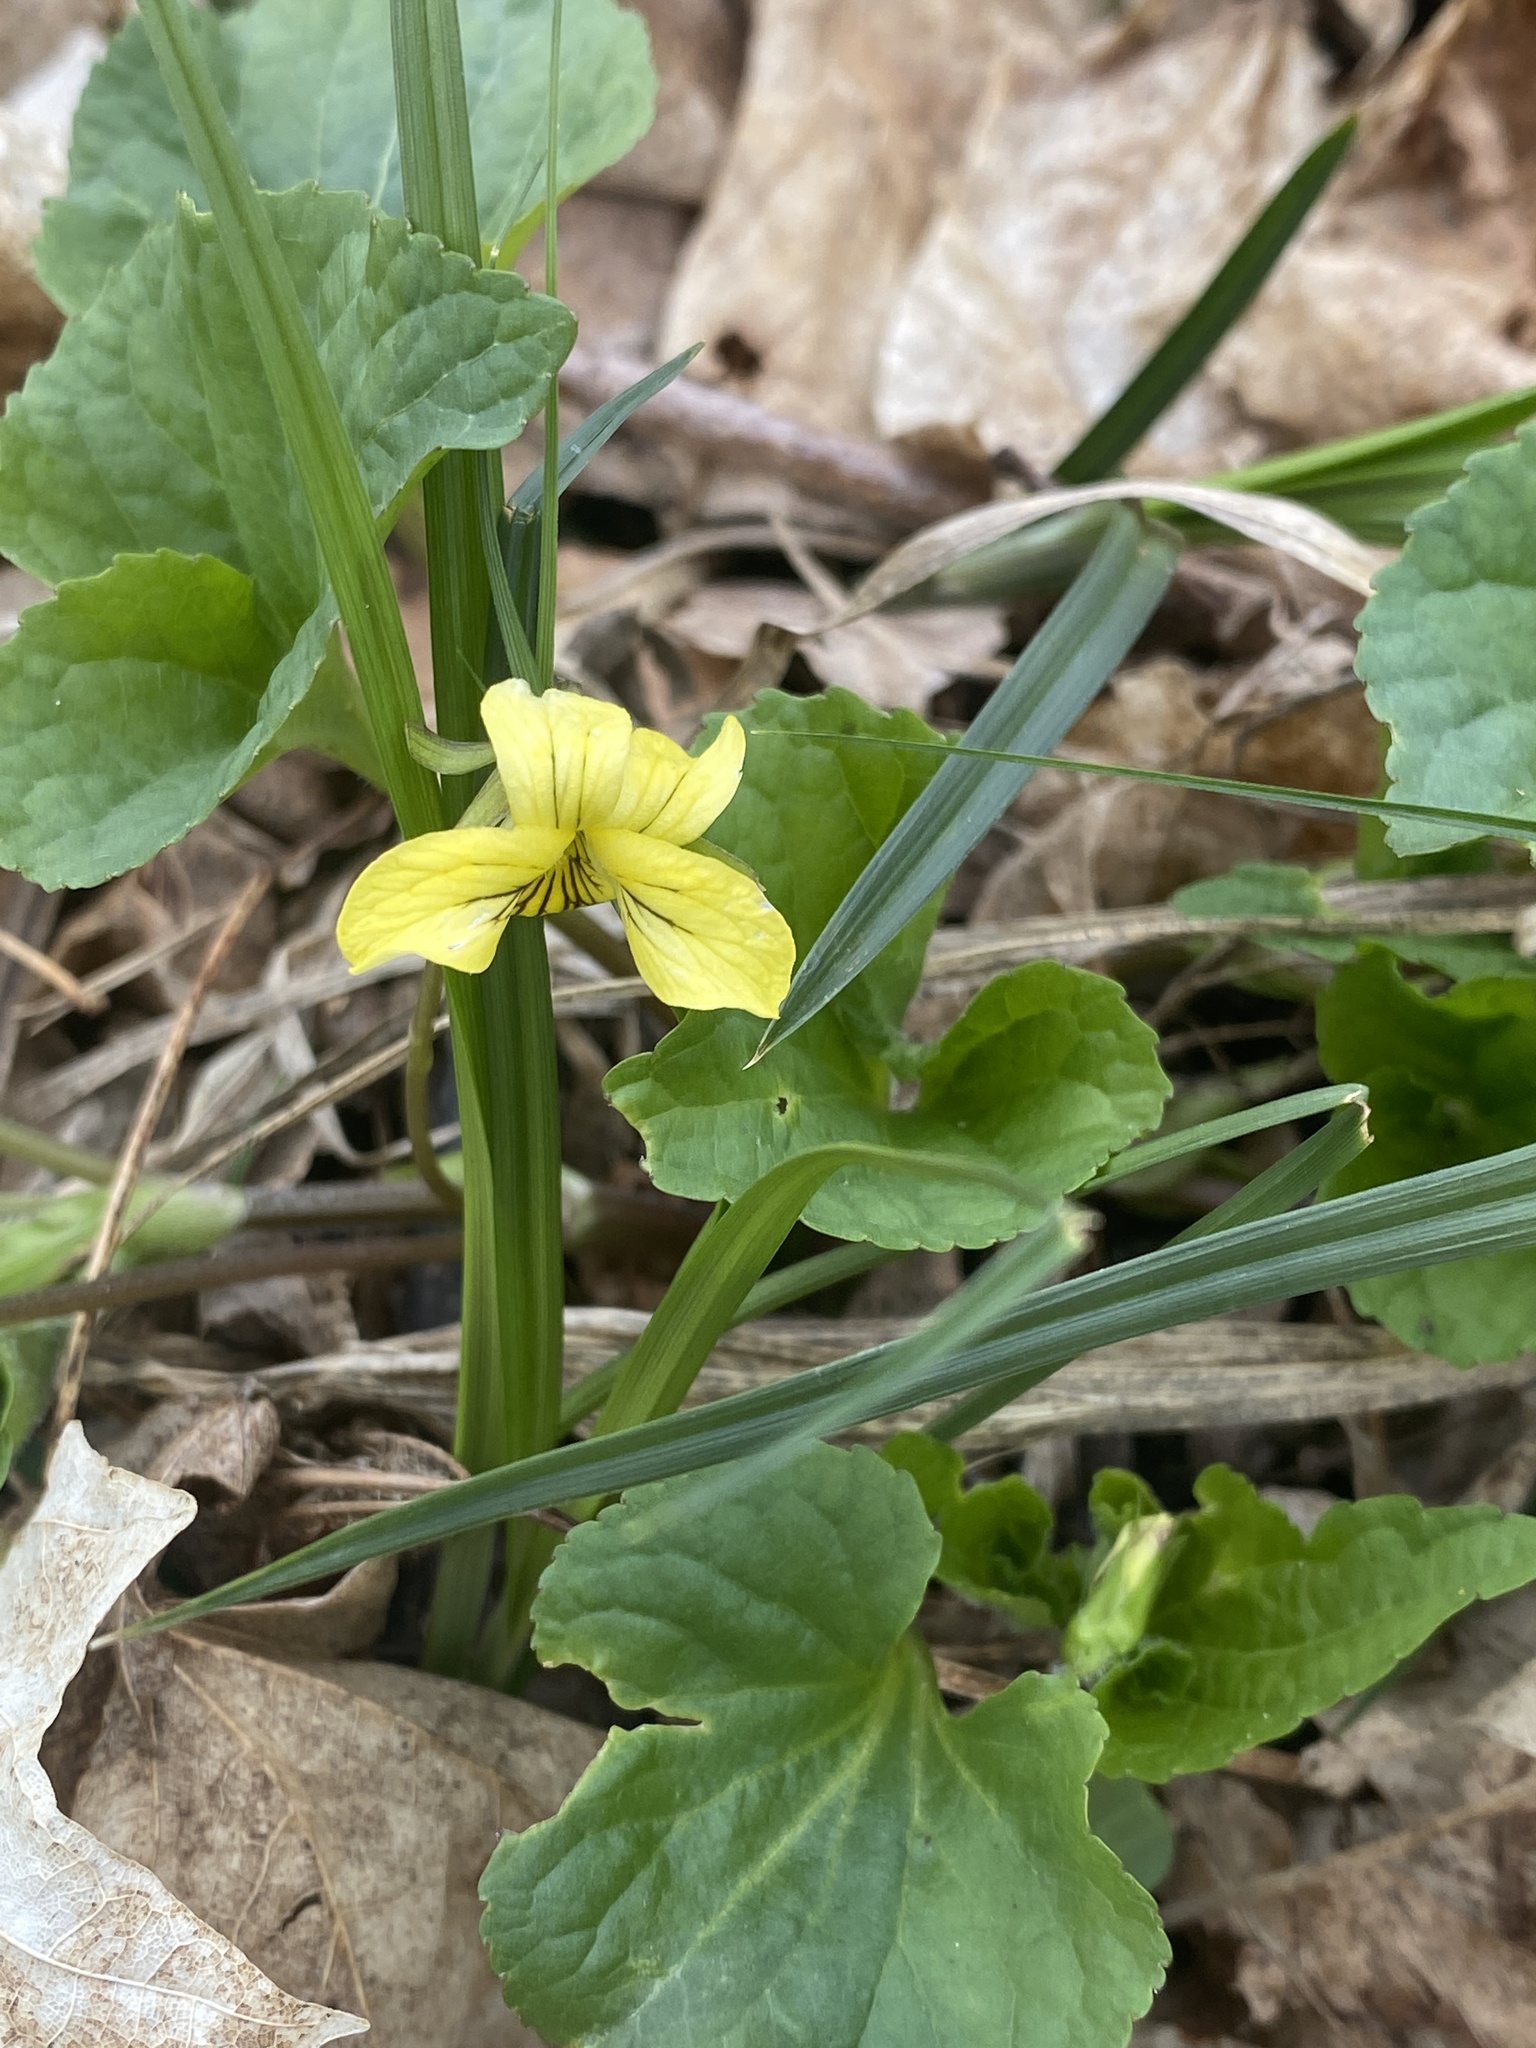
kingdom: Plantae
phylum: Tracheophyta
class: Magnoliopsida
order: Malpighiales
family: Violaceae
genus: Viola
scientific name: Viola eriocarpa
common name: Smooth yellow violet
